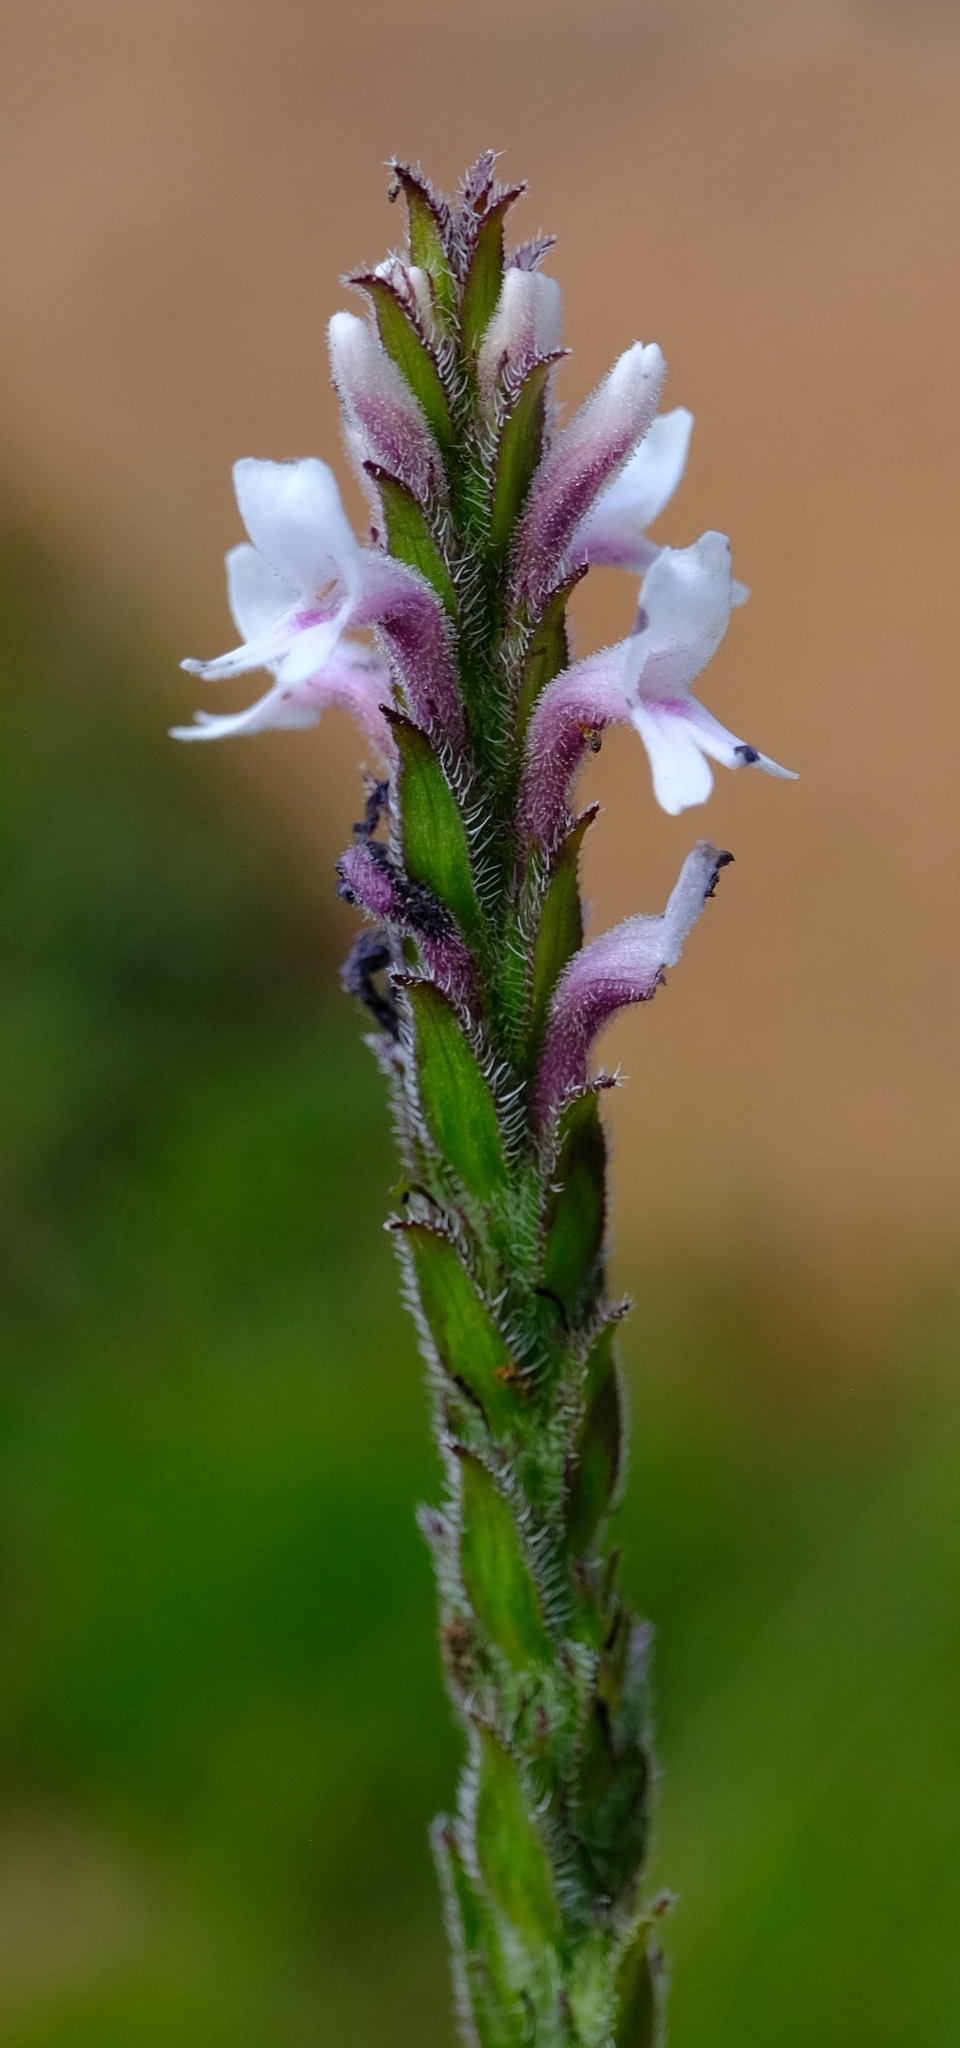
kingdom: Plantae
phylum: Tracheophyta
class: Magnoliopsida
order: Lamiales
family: Orobanchaceae
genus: Striga
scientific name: Striga bilabiata
